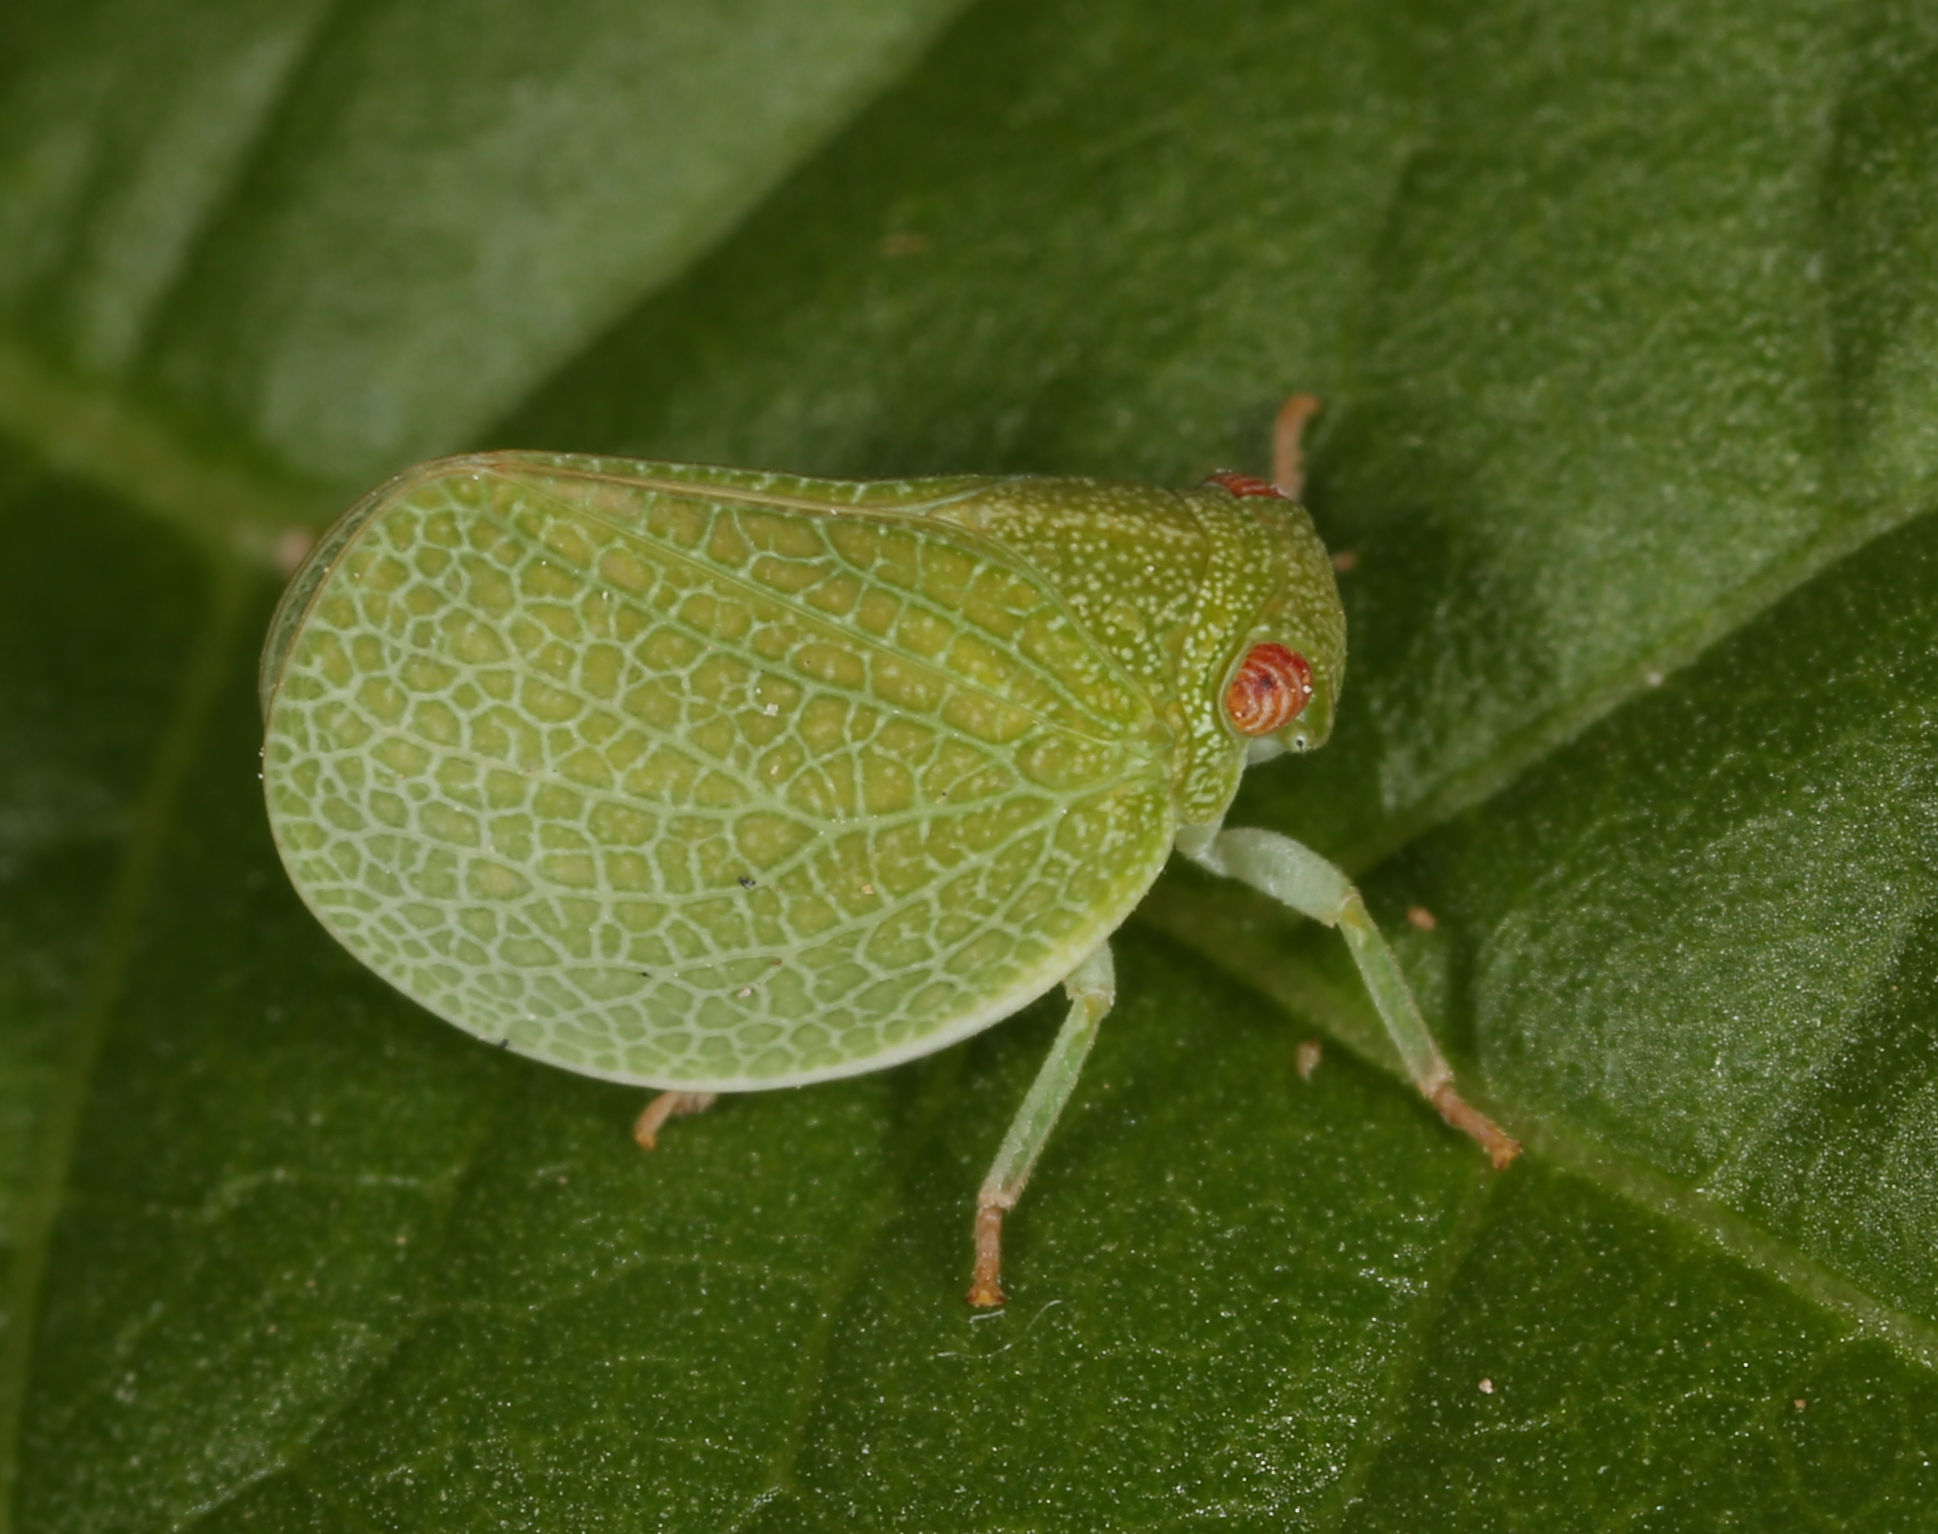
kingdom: Animalia
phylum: Arthropoda
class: Insecta
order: Hemiptera
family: Acanaloniidae
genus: Acanalonia
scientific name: Acanalonia immaculata
